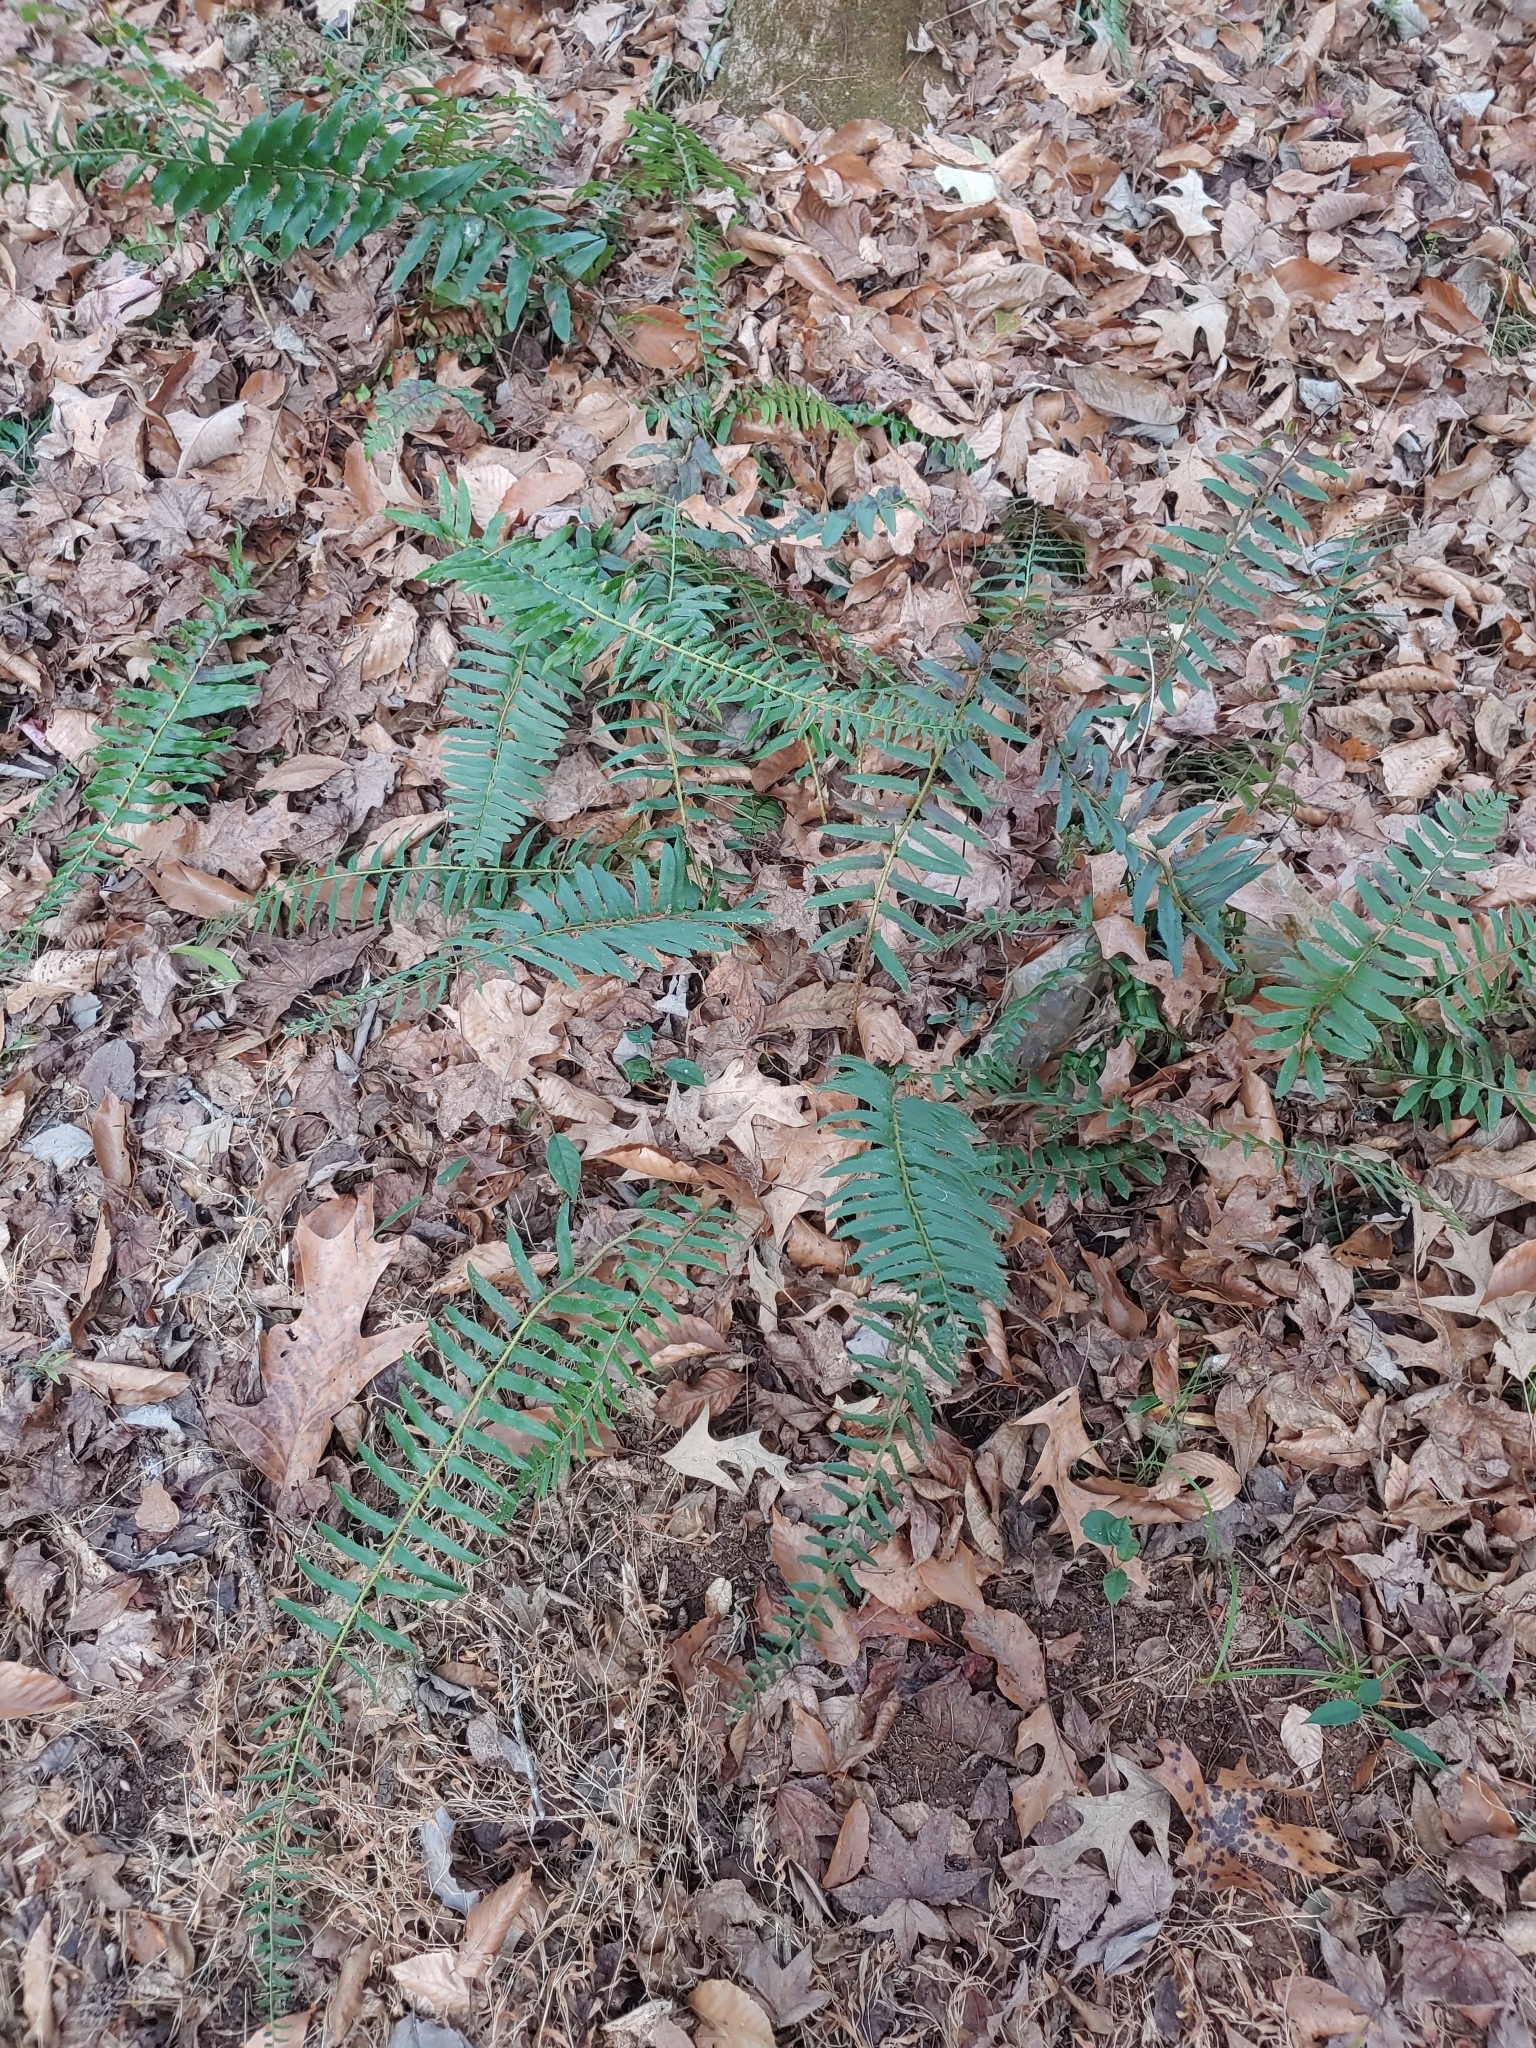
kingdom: Plantae
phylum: Tracheophyta
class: Polypodiopsida
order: Polypodiales
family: Dryopteridaceae
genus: Polystichum
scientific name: Polystichum acrostichoides
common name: Christmas fern
